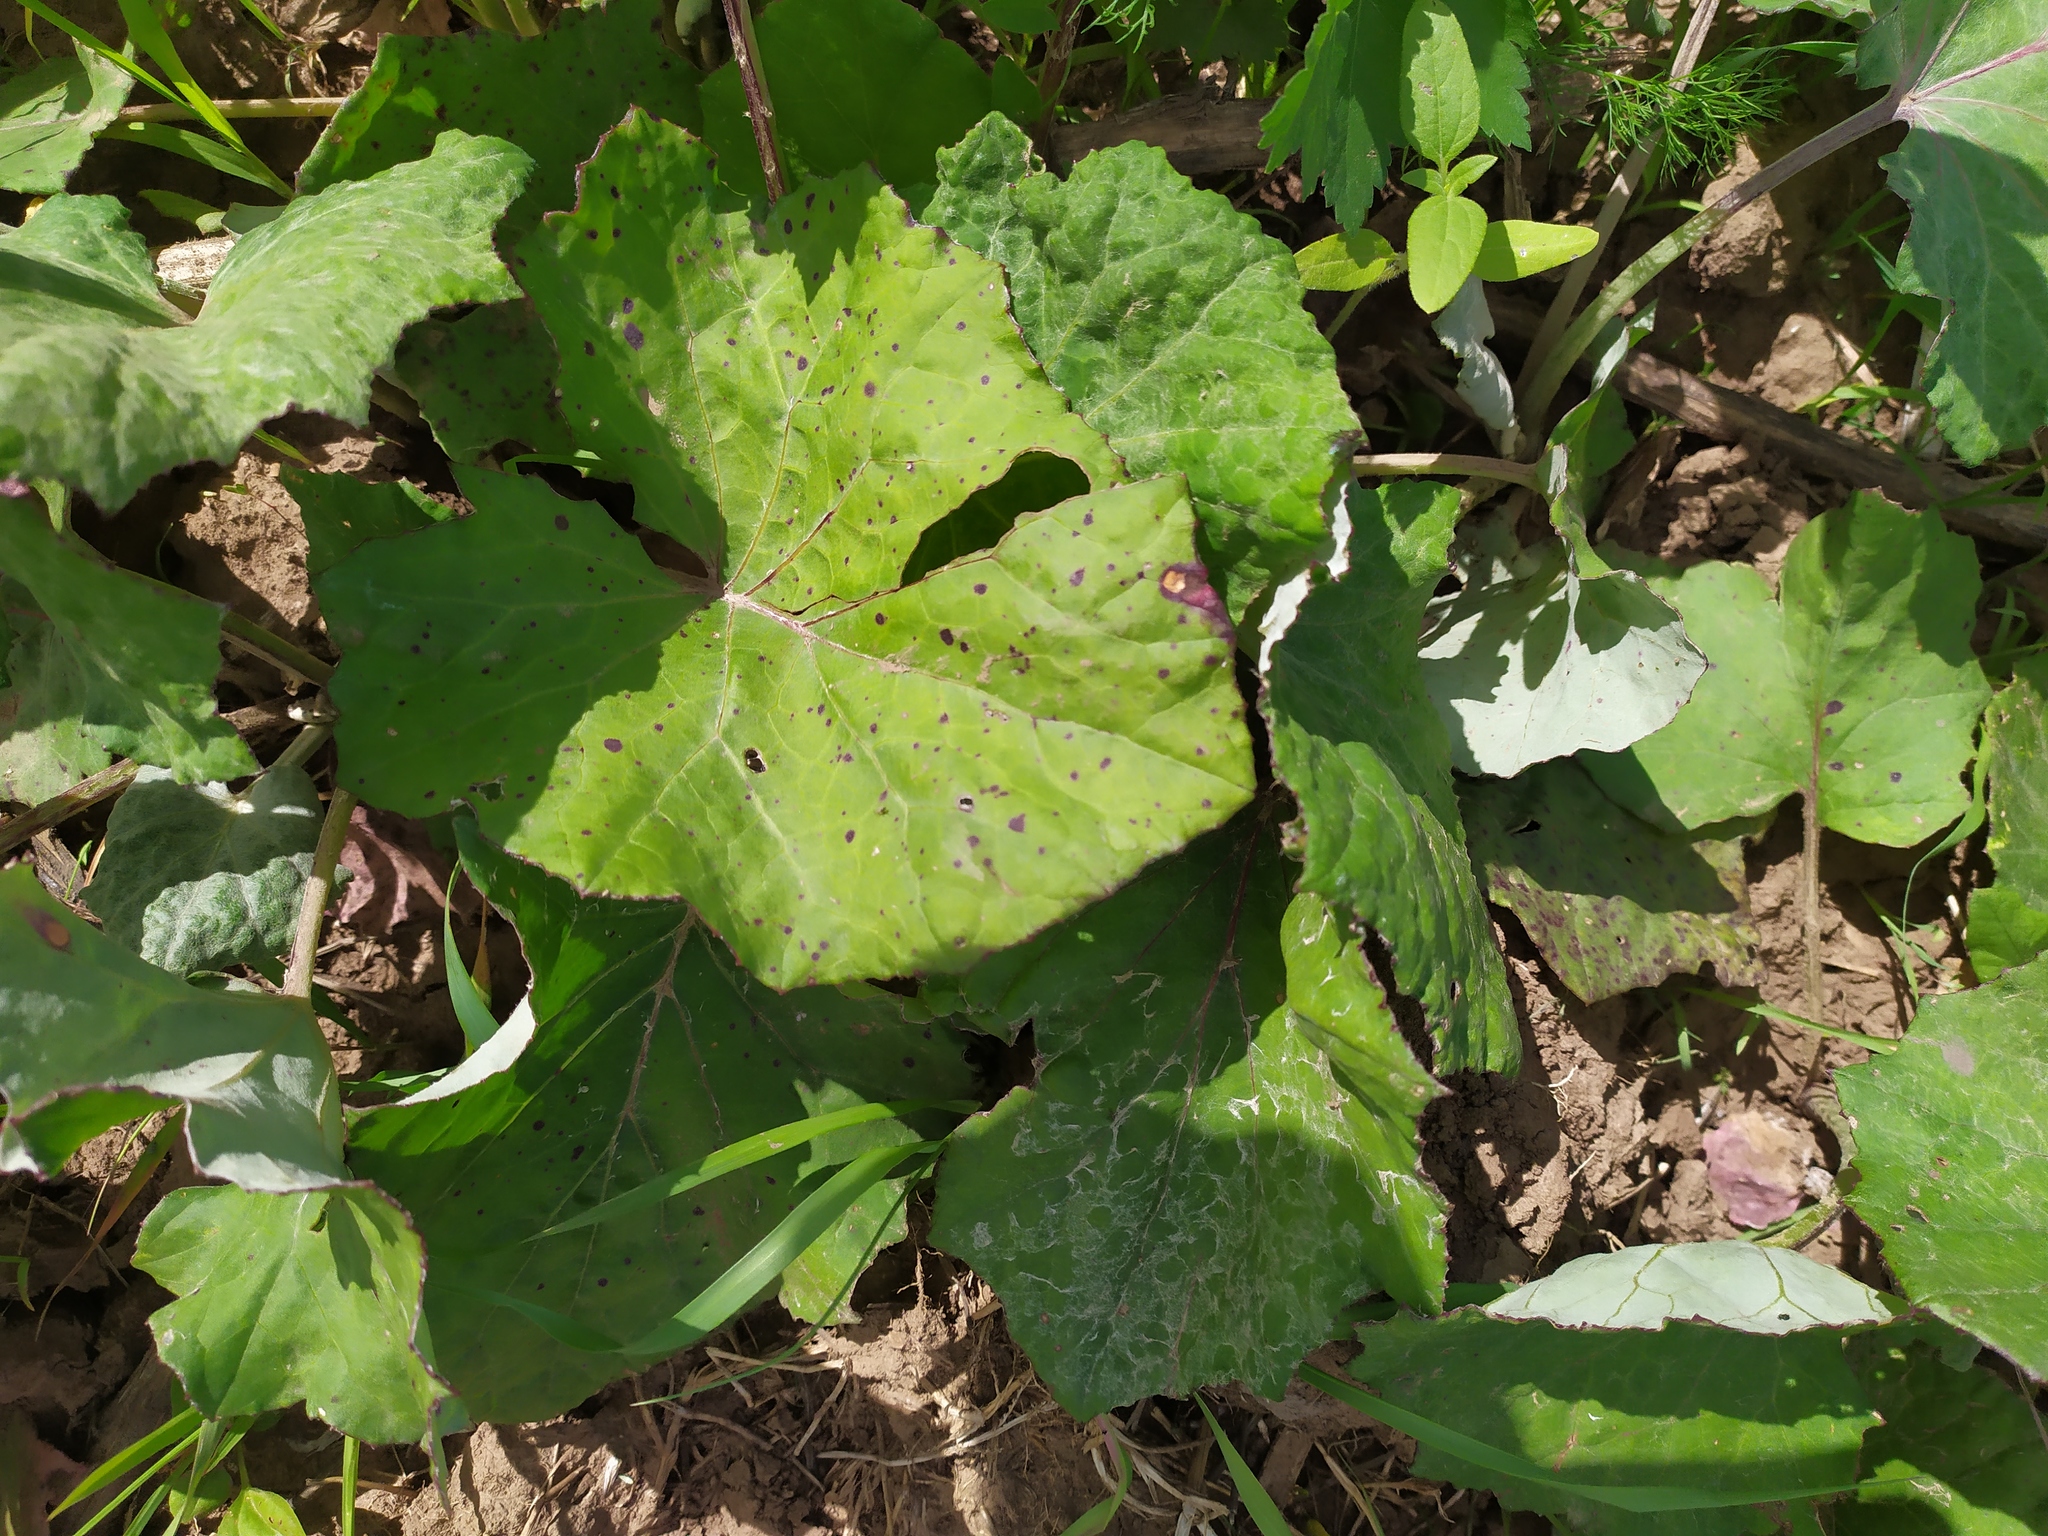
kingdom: Plantae
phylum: Tracheophyta
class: Magnoliopsida
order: Asterales
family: Asteraceae
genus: Tussilago
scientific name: Tussilago farfara
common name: Coltsfoot
